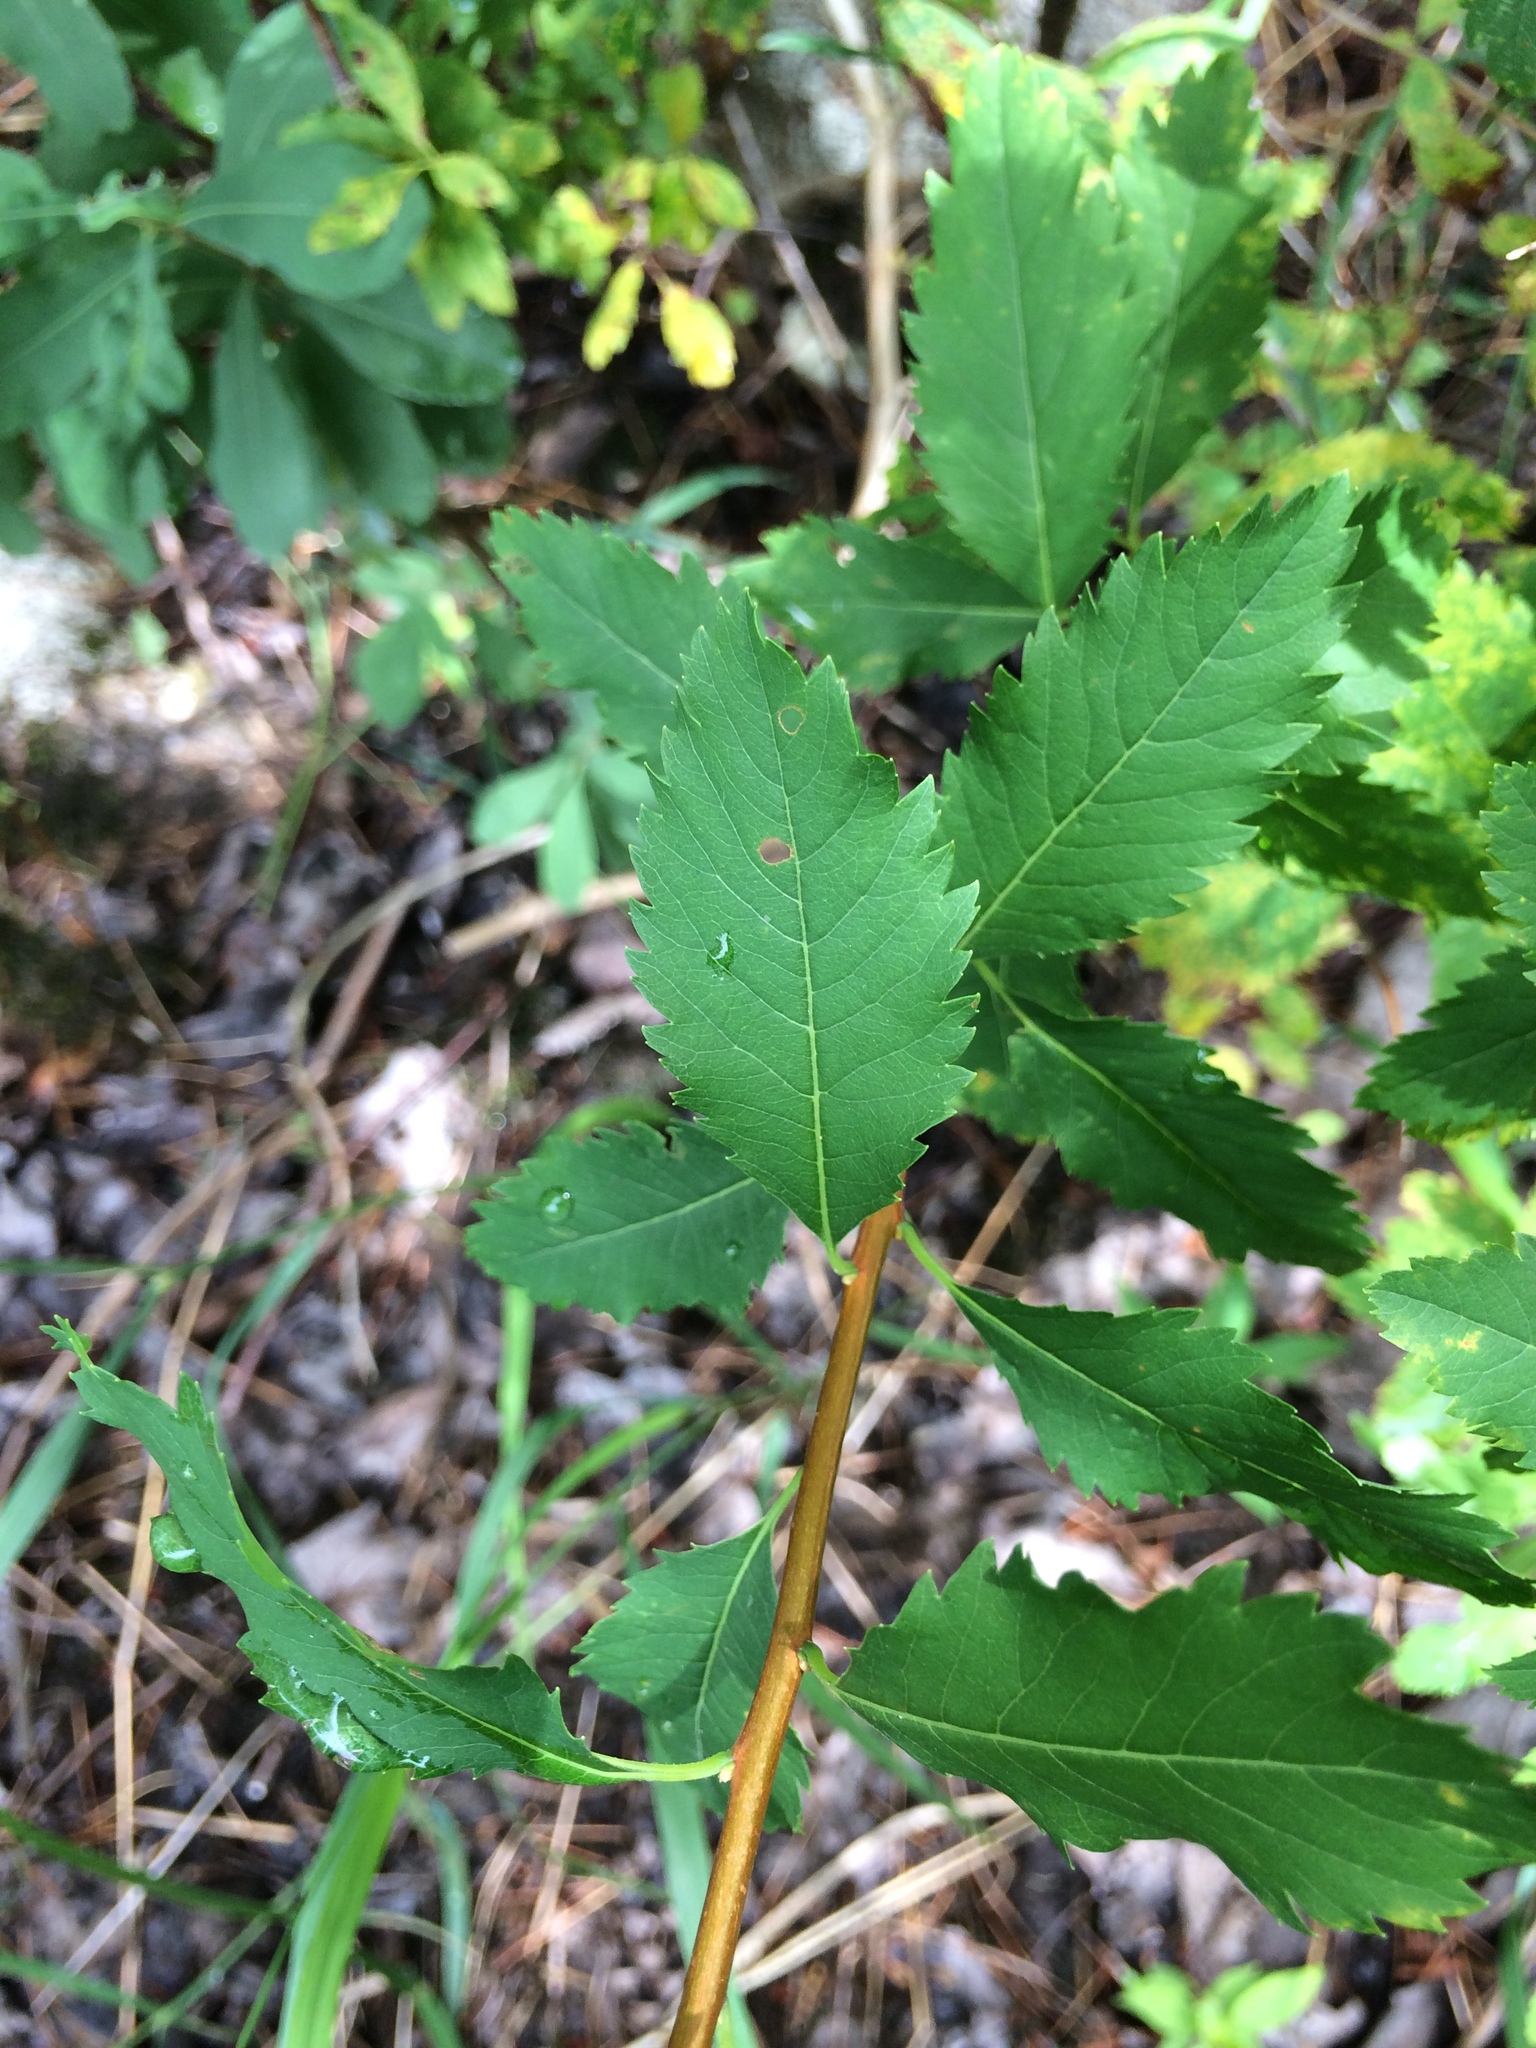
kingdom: Plantae
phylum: Tracheophyta
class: Magnoliopsida
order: Rosales
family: Rosaceae
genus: Spiraea
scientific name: Spiraea alba
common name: Pale bridewort
